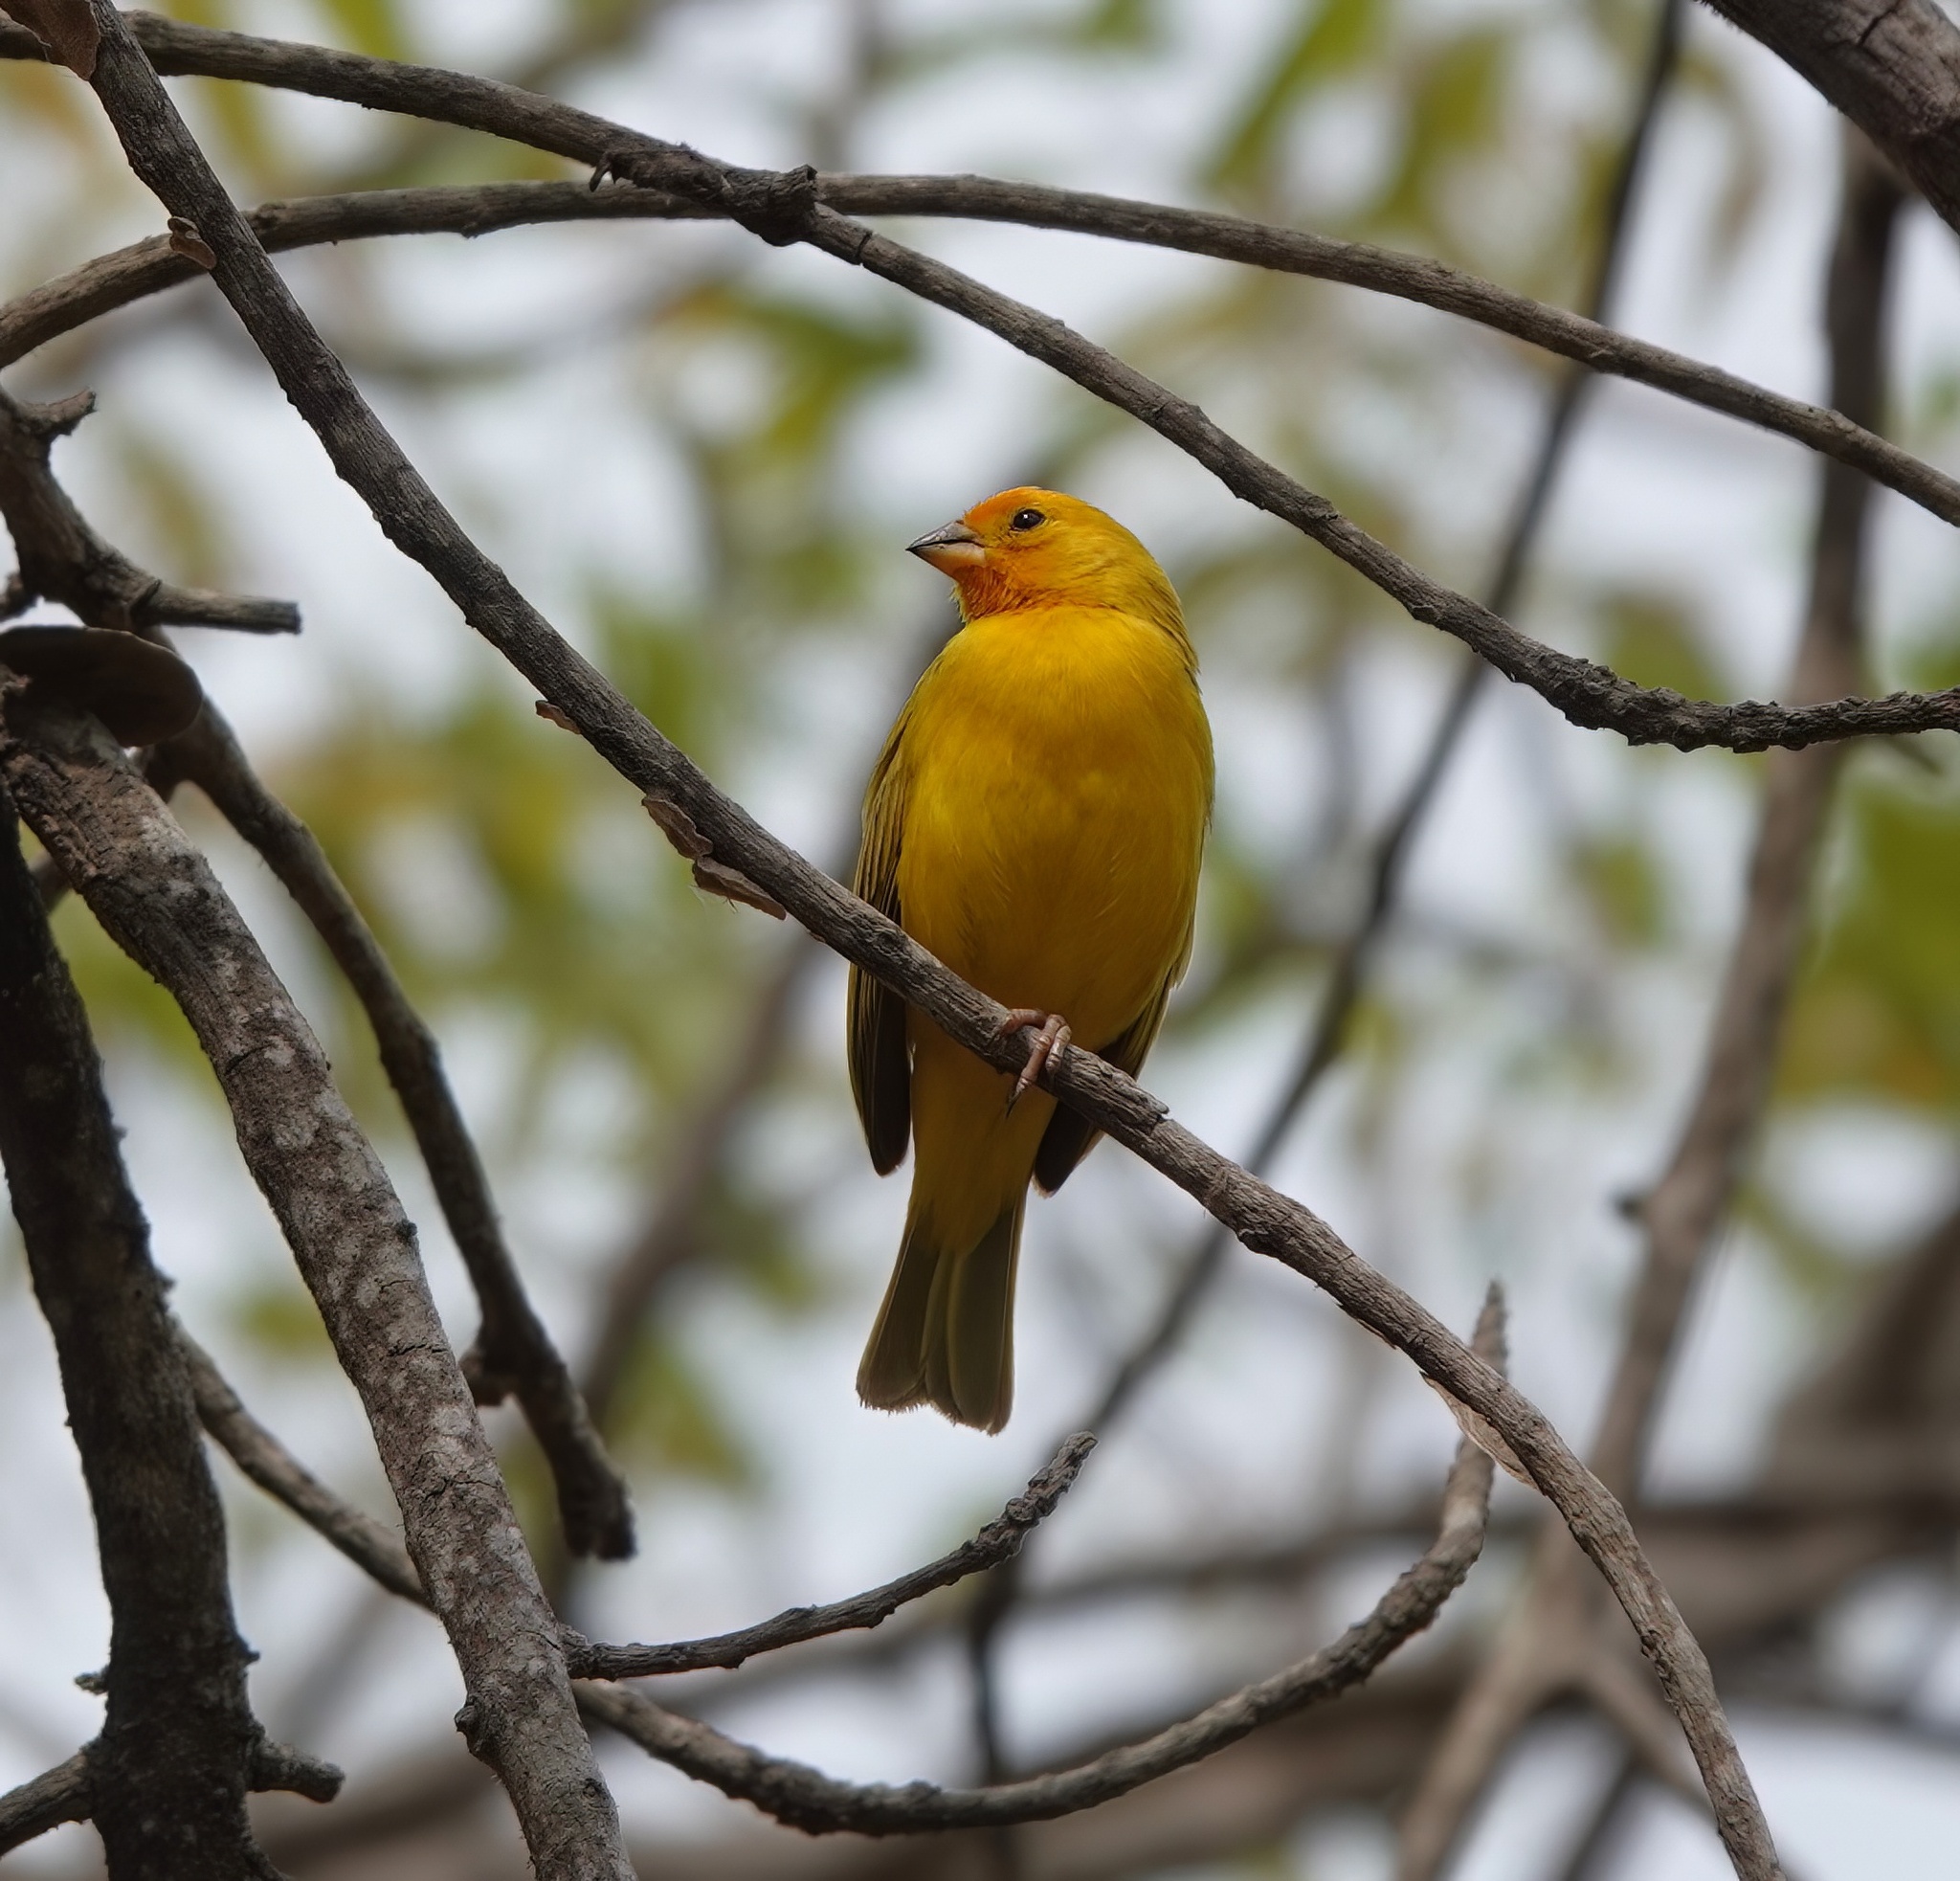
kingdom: Animalia
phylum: Chordata
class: Aves
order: Passeriformes
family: Thraupidae
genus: Sicalis
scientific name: Sicalis flaveola
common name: Saffron finch
